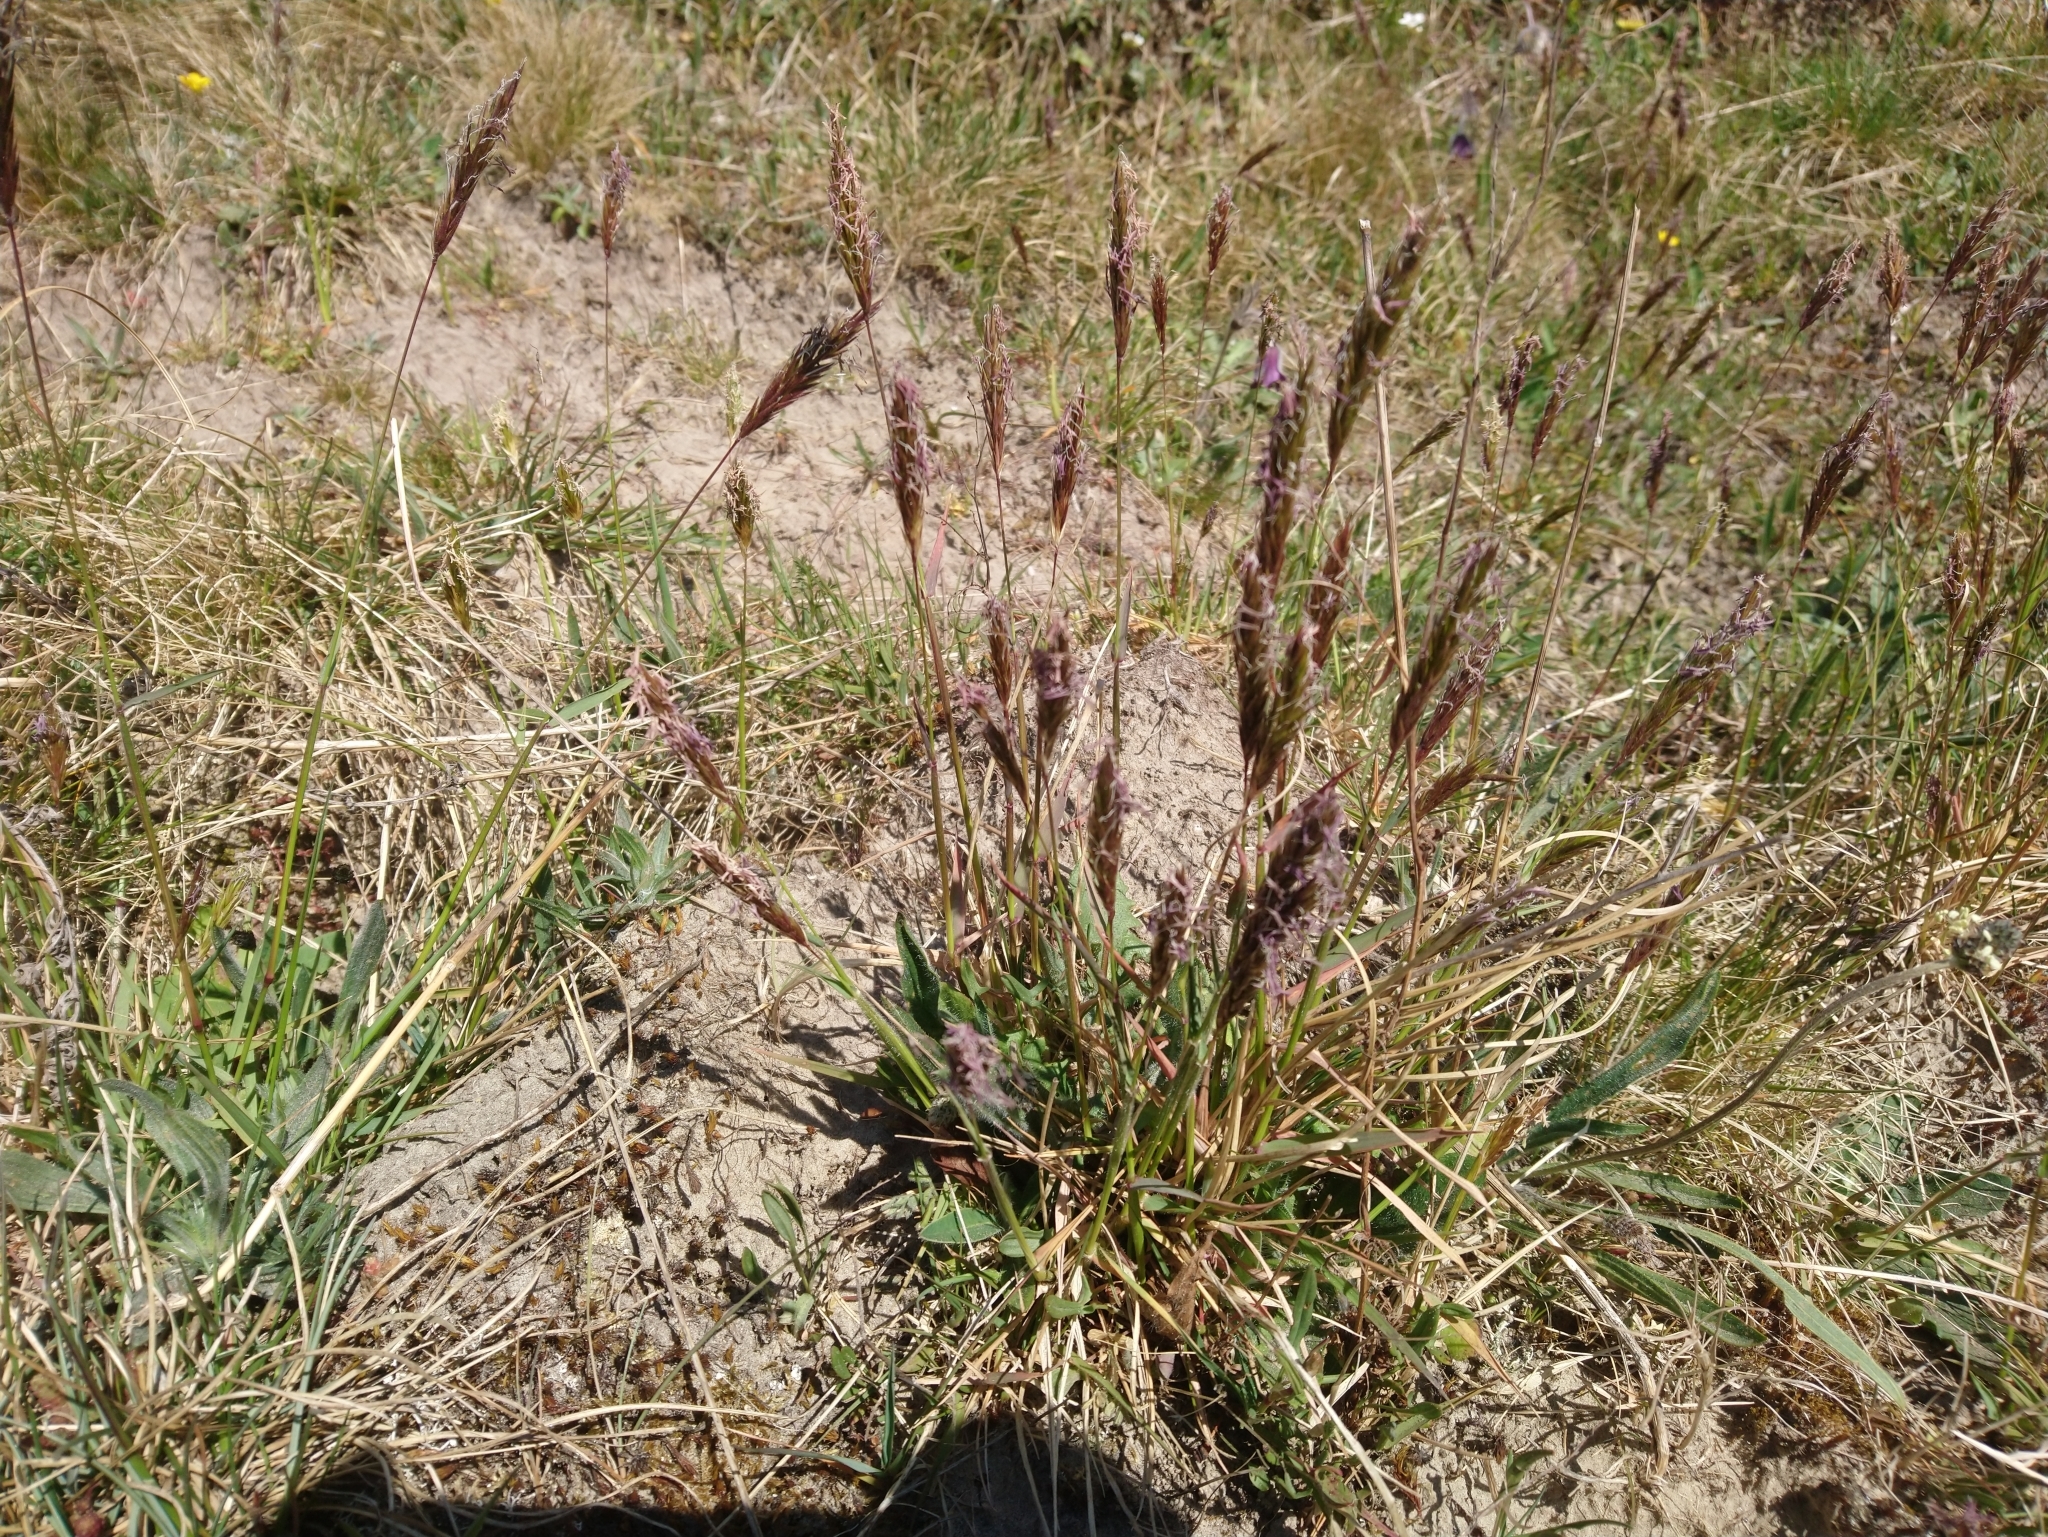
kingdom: Plantae
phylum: Tracheophyta
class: Liliopsida
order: Poales
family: Poaceae
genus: Anthoxanthum
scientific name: Anthoxanthum odoratum
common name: Sweet vernalgrass
